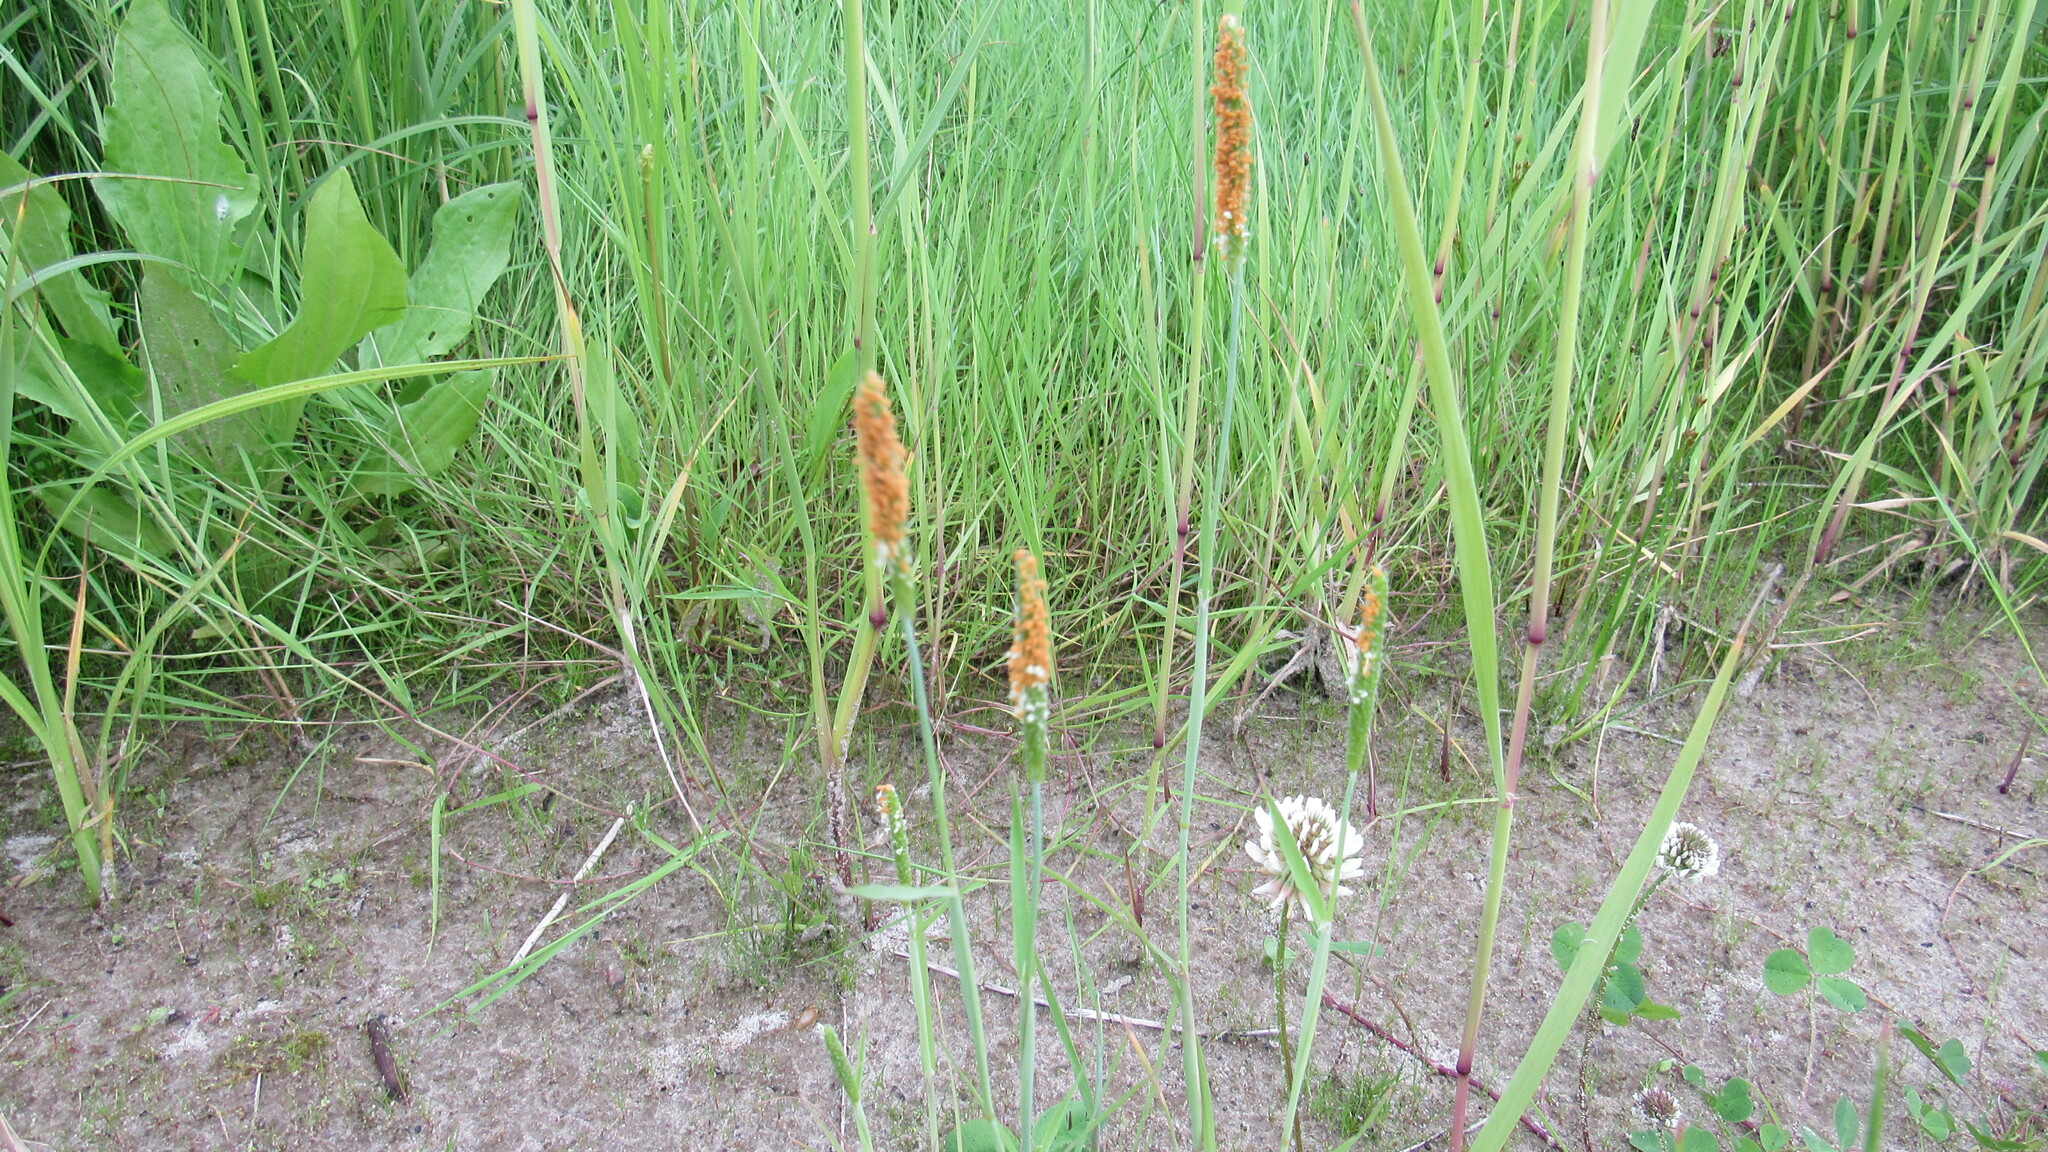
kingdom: Plantae
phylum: Tracheophyta
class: Liliopsida
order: Poales
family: Poaceae
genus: Alopecurus
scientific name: Alopecurus aequalis
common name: Orange foxtail
